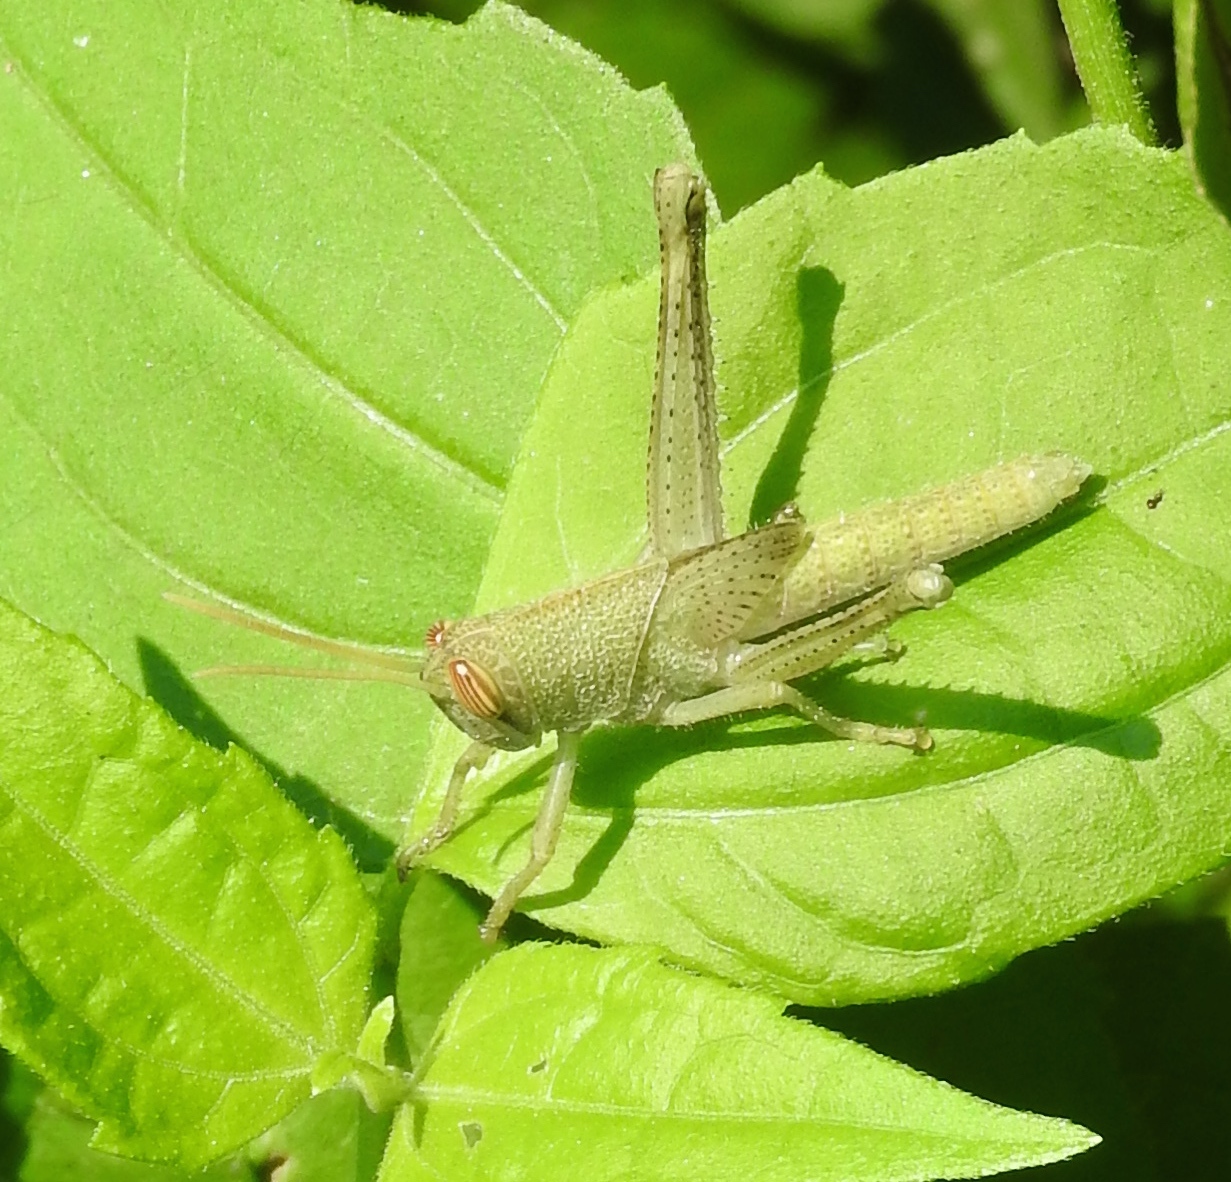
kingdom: Animalia
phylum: Arthropoda
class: Insecta
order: Orthoptera
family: Acrididae
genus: Schistocerca
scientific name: Schistocerca camerata
